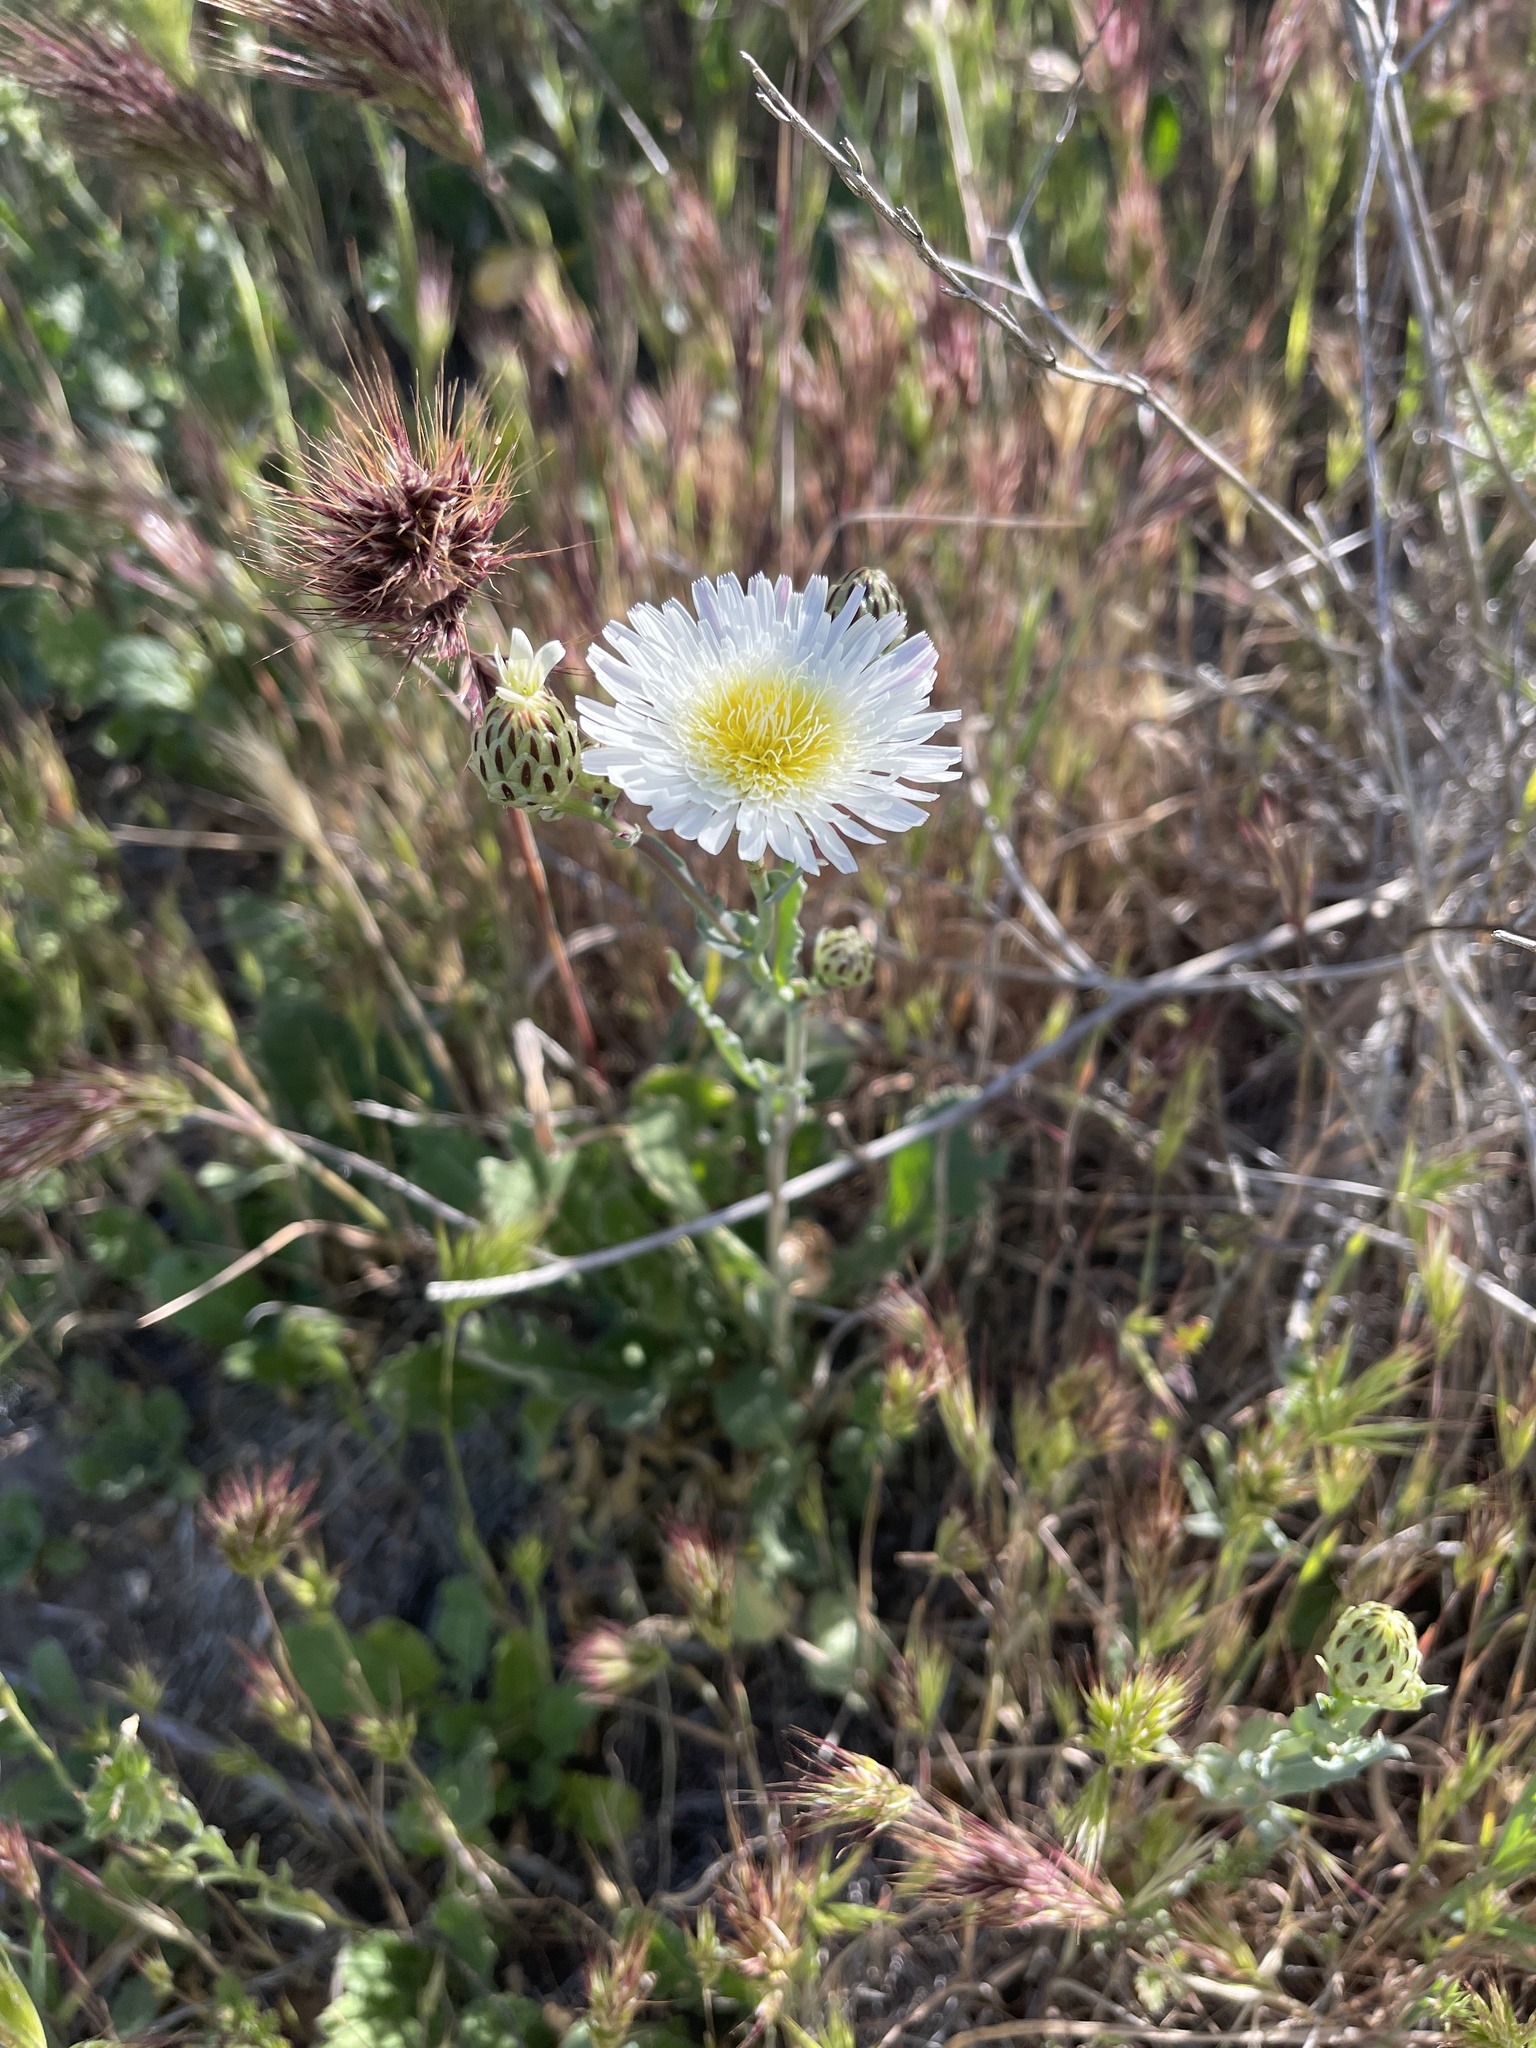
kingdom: Plantae
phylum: Tracheophyta
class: Magnoliopsida
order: Asterales
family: Asteraceae
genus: Malacothrix
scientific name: Malacothrix coulteri
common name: Snake's-head
